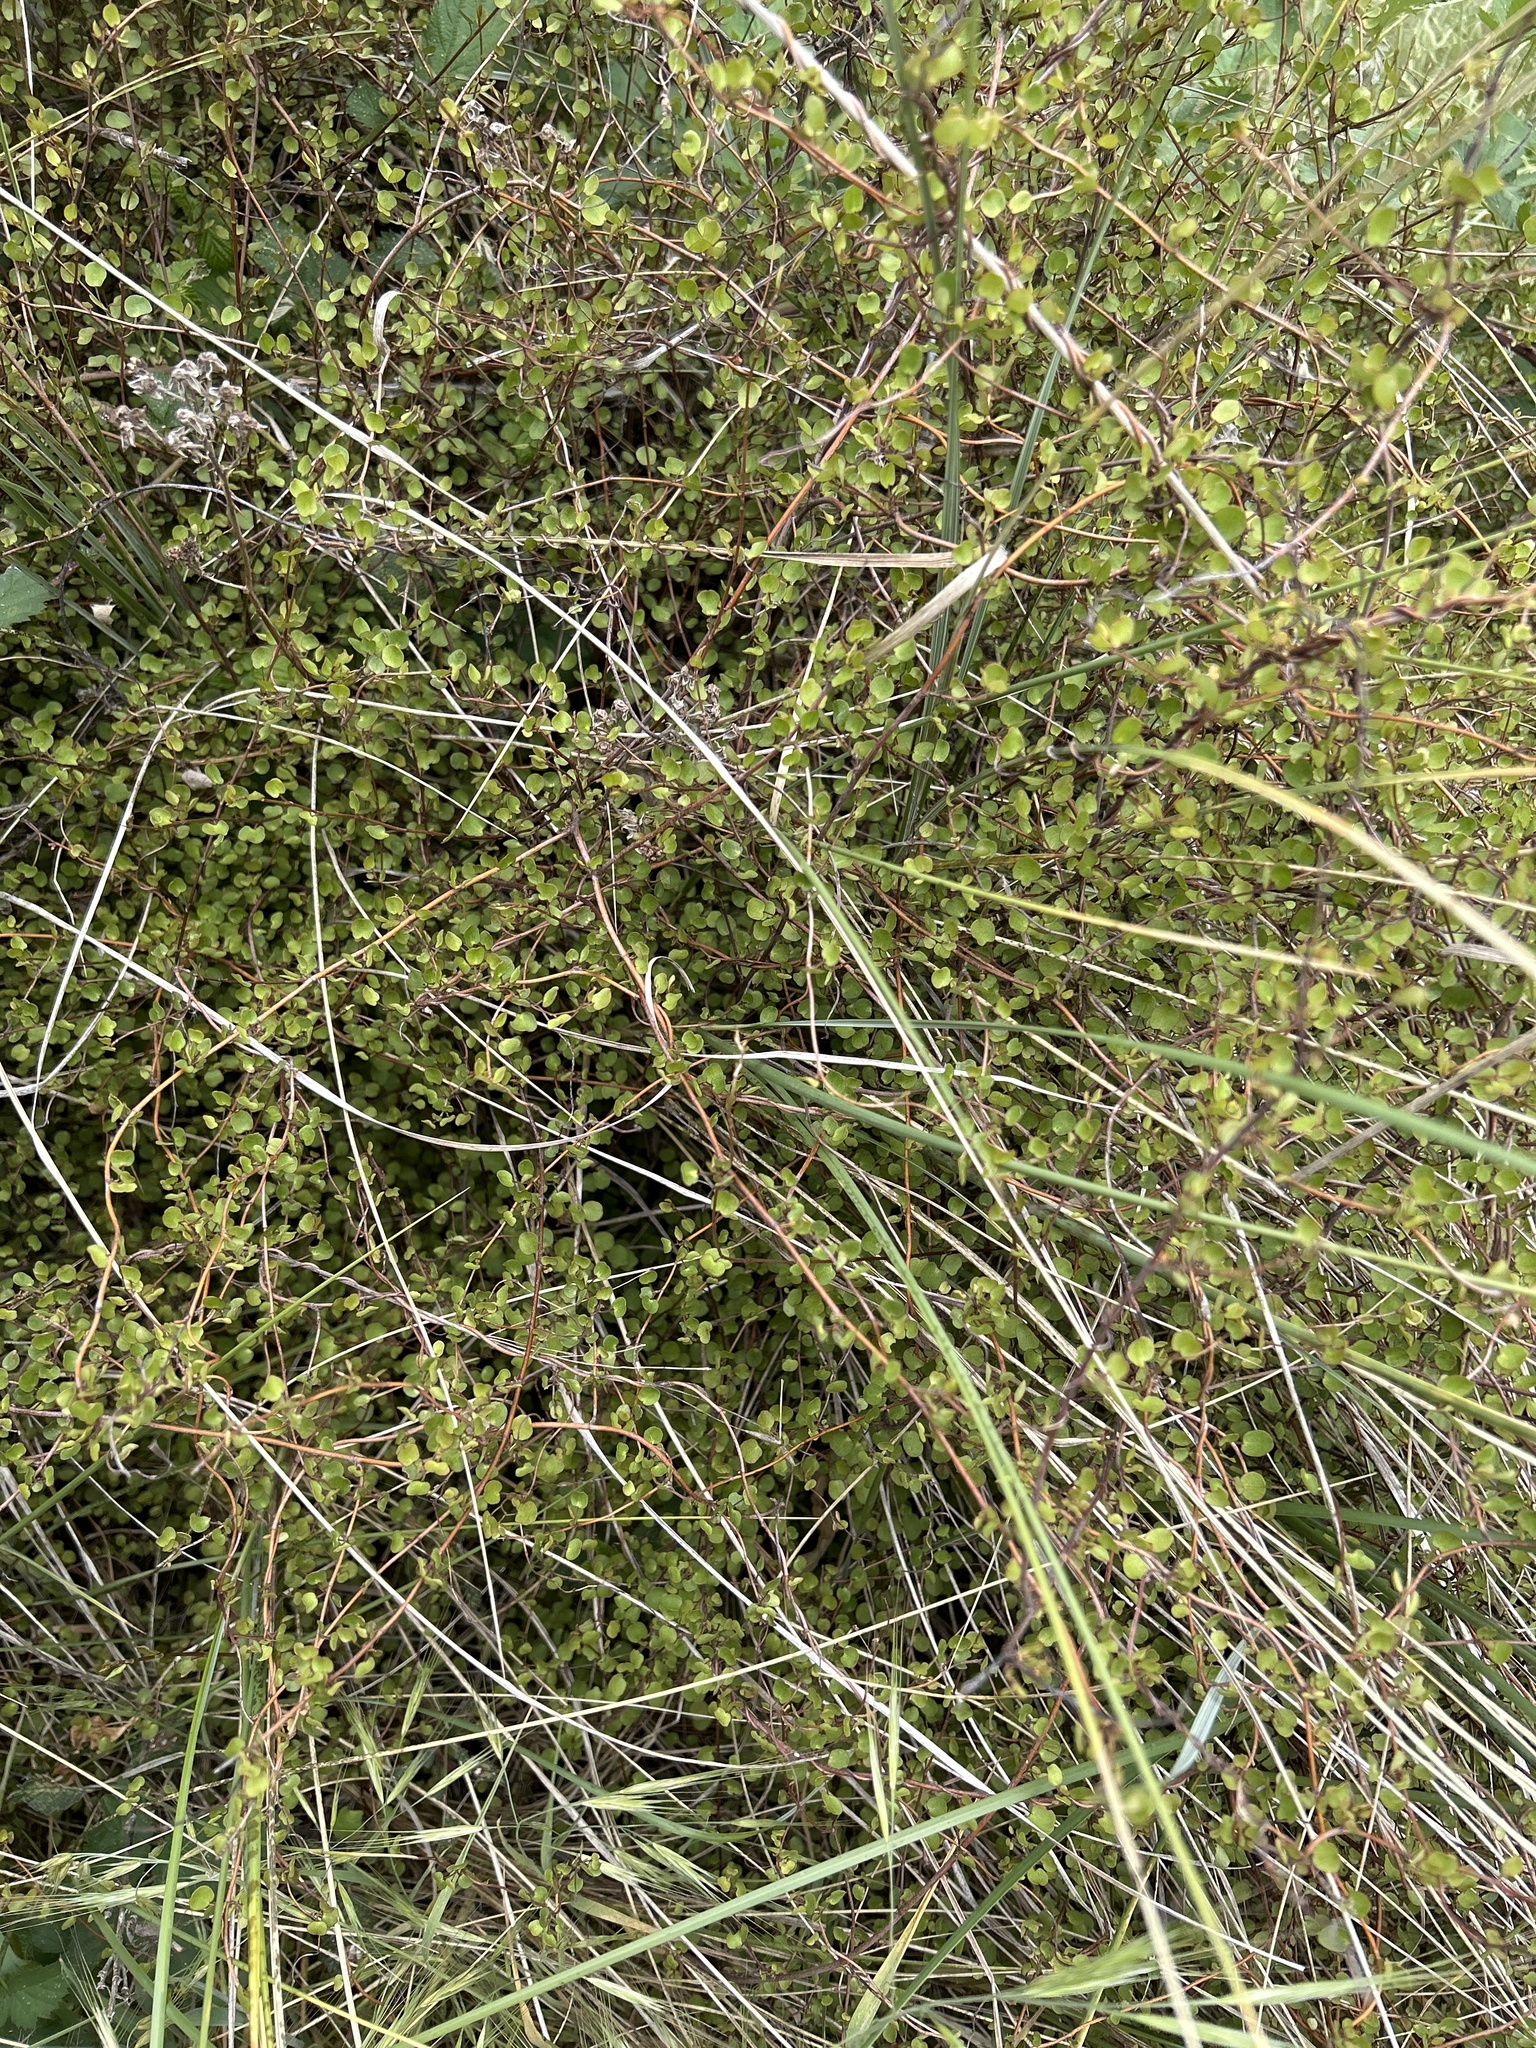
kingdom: Plantae
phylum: Tracheophyta
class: Magnoliopsida
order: Caryophyllales
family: Polygonaceae
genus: Muehlenbeckia
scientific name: Muehlenbeckia complexa
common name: Wireplant
